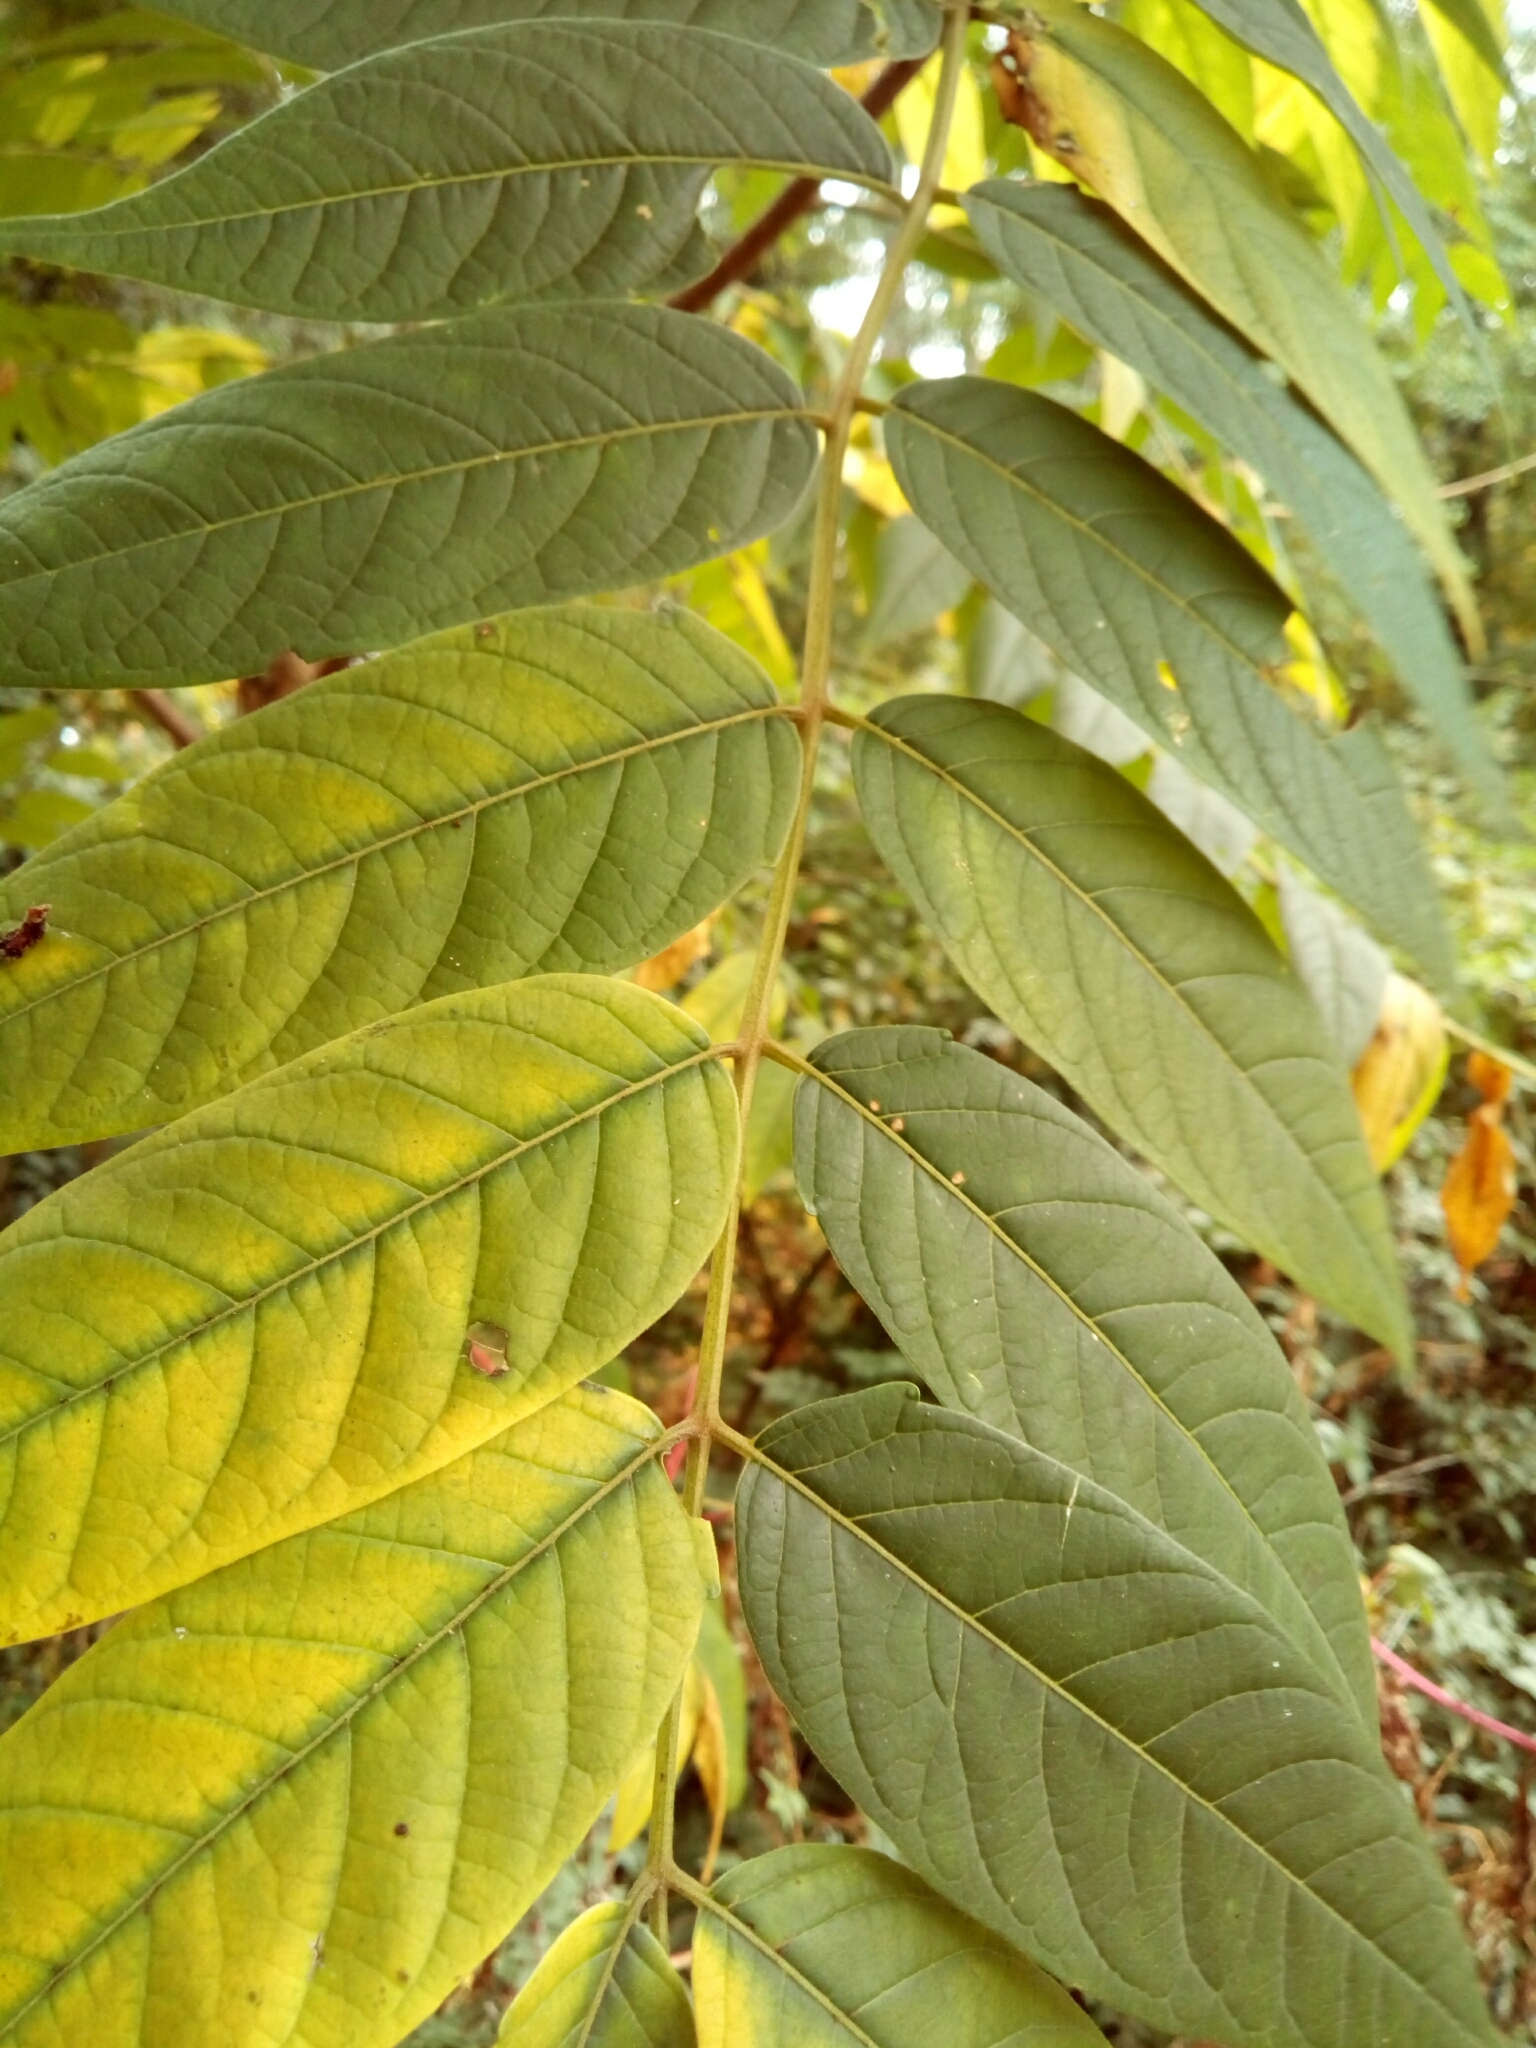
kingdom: Plantae
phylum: Tracheophyta
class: Magnoliopsida
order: Sapindales
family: Simaroubaceae
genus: Ailanthus
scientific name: Ailanthus altissima
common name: Tree-of-heaven
